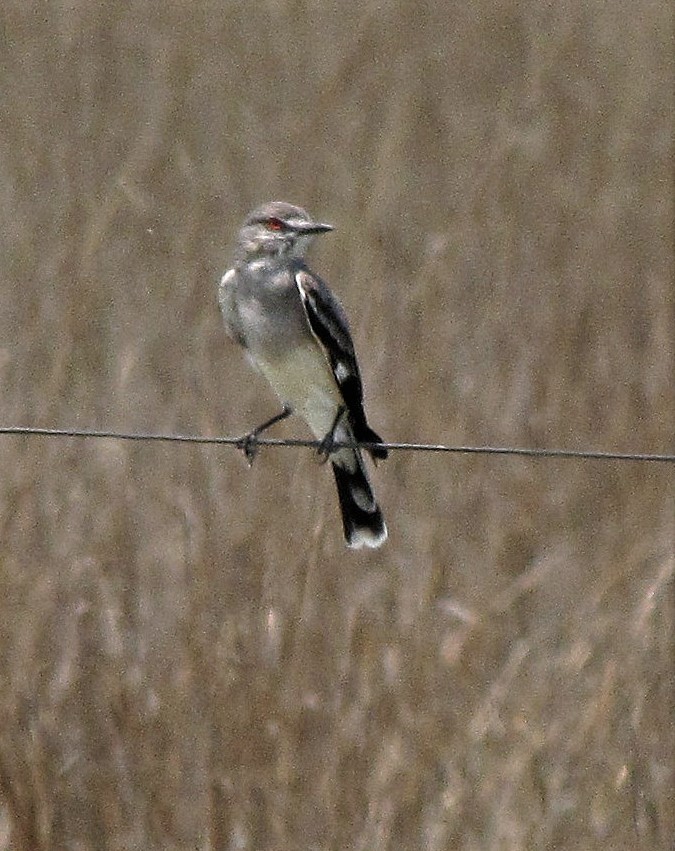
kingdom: Animalia
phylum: Chordata
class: Aves
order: Passeriformes
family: Tyrannidae
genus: Xolmis
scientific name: Xolmis cinereus
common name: Grey monjita
